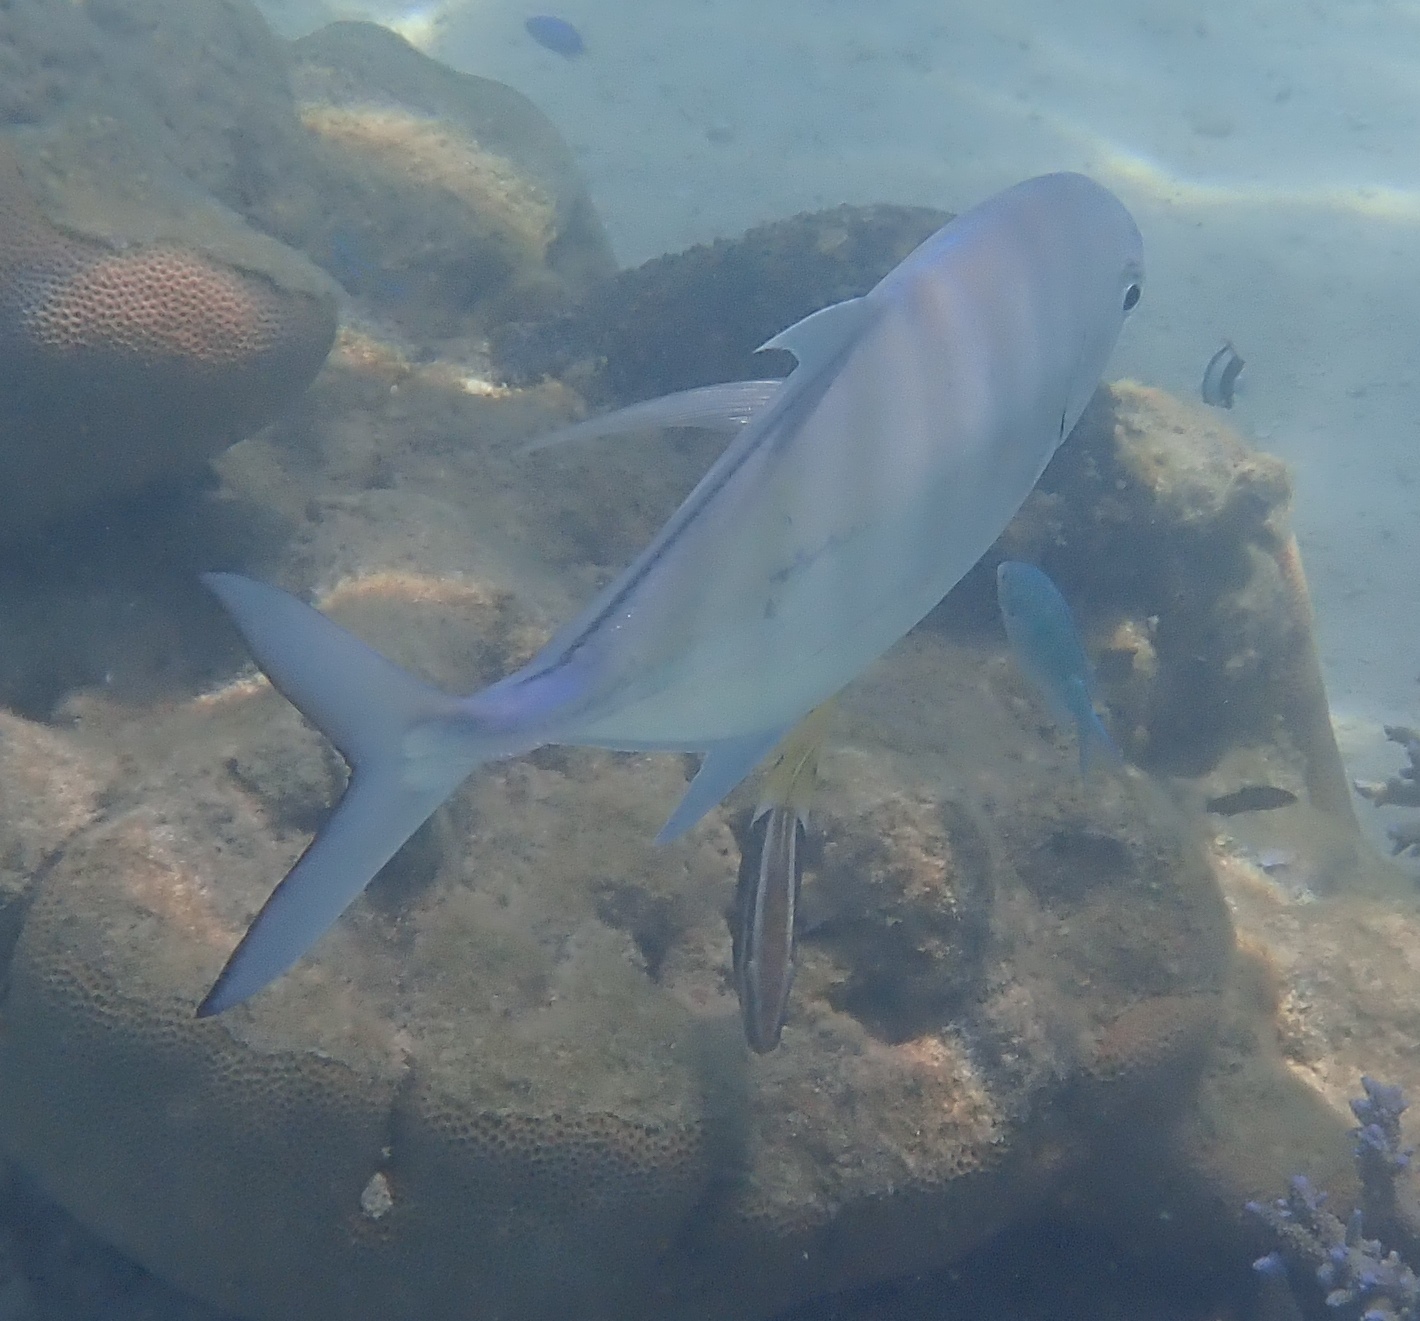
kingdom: Animalia
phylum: Chordata
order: Perciformes
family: Carangidae
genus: Carangoides
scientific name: Carangoides Ferdauia ferdau
